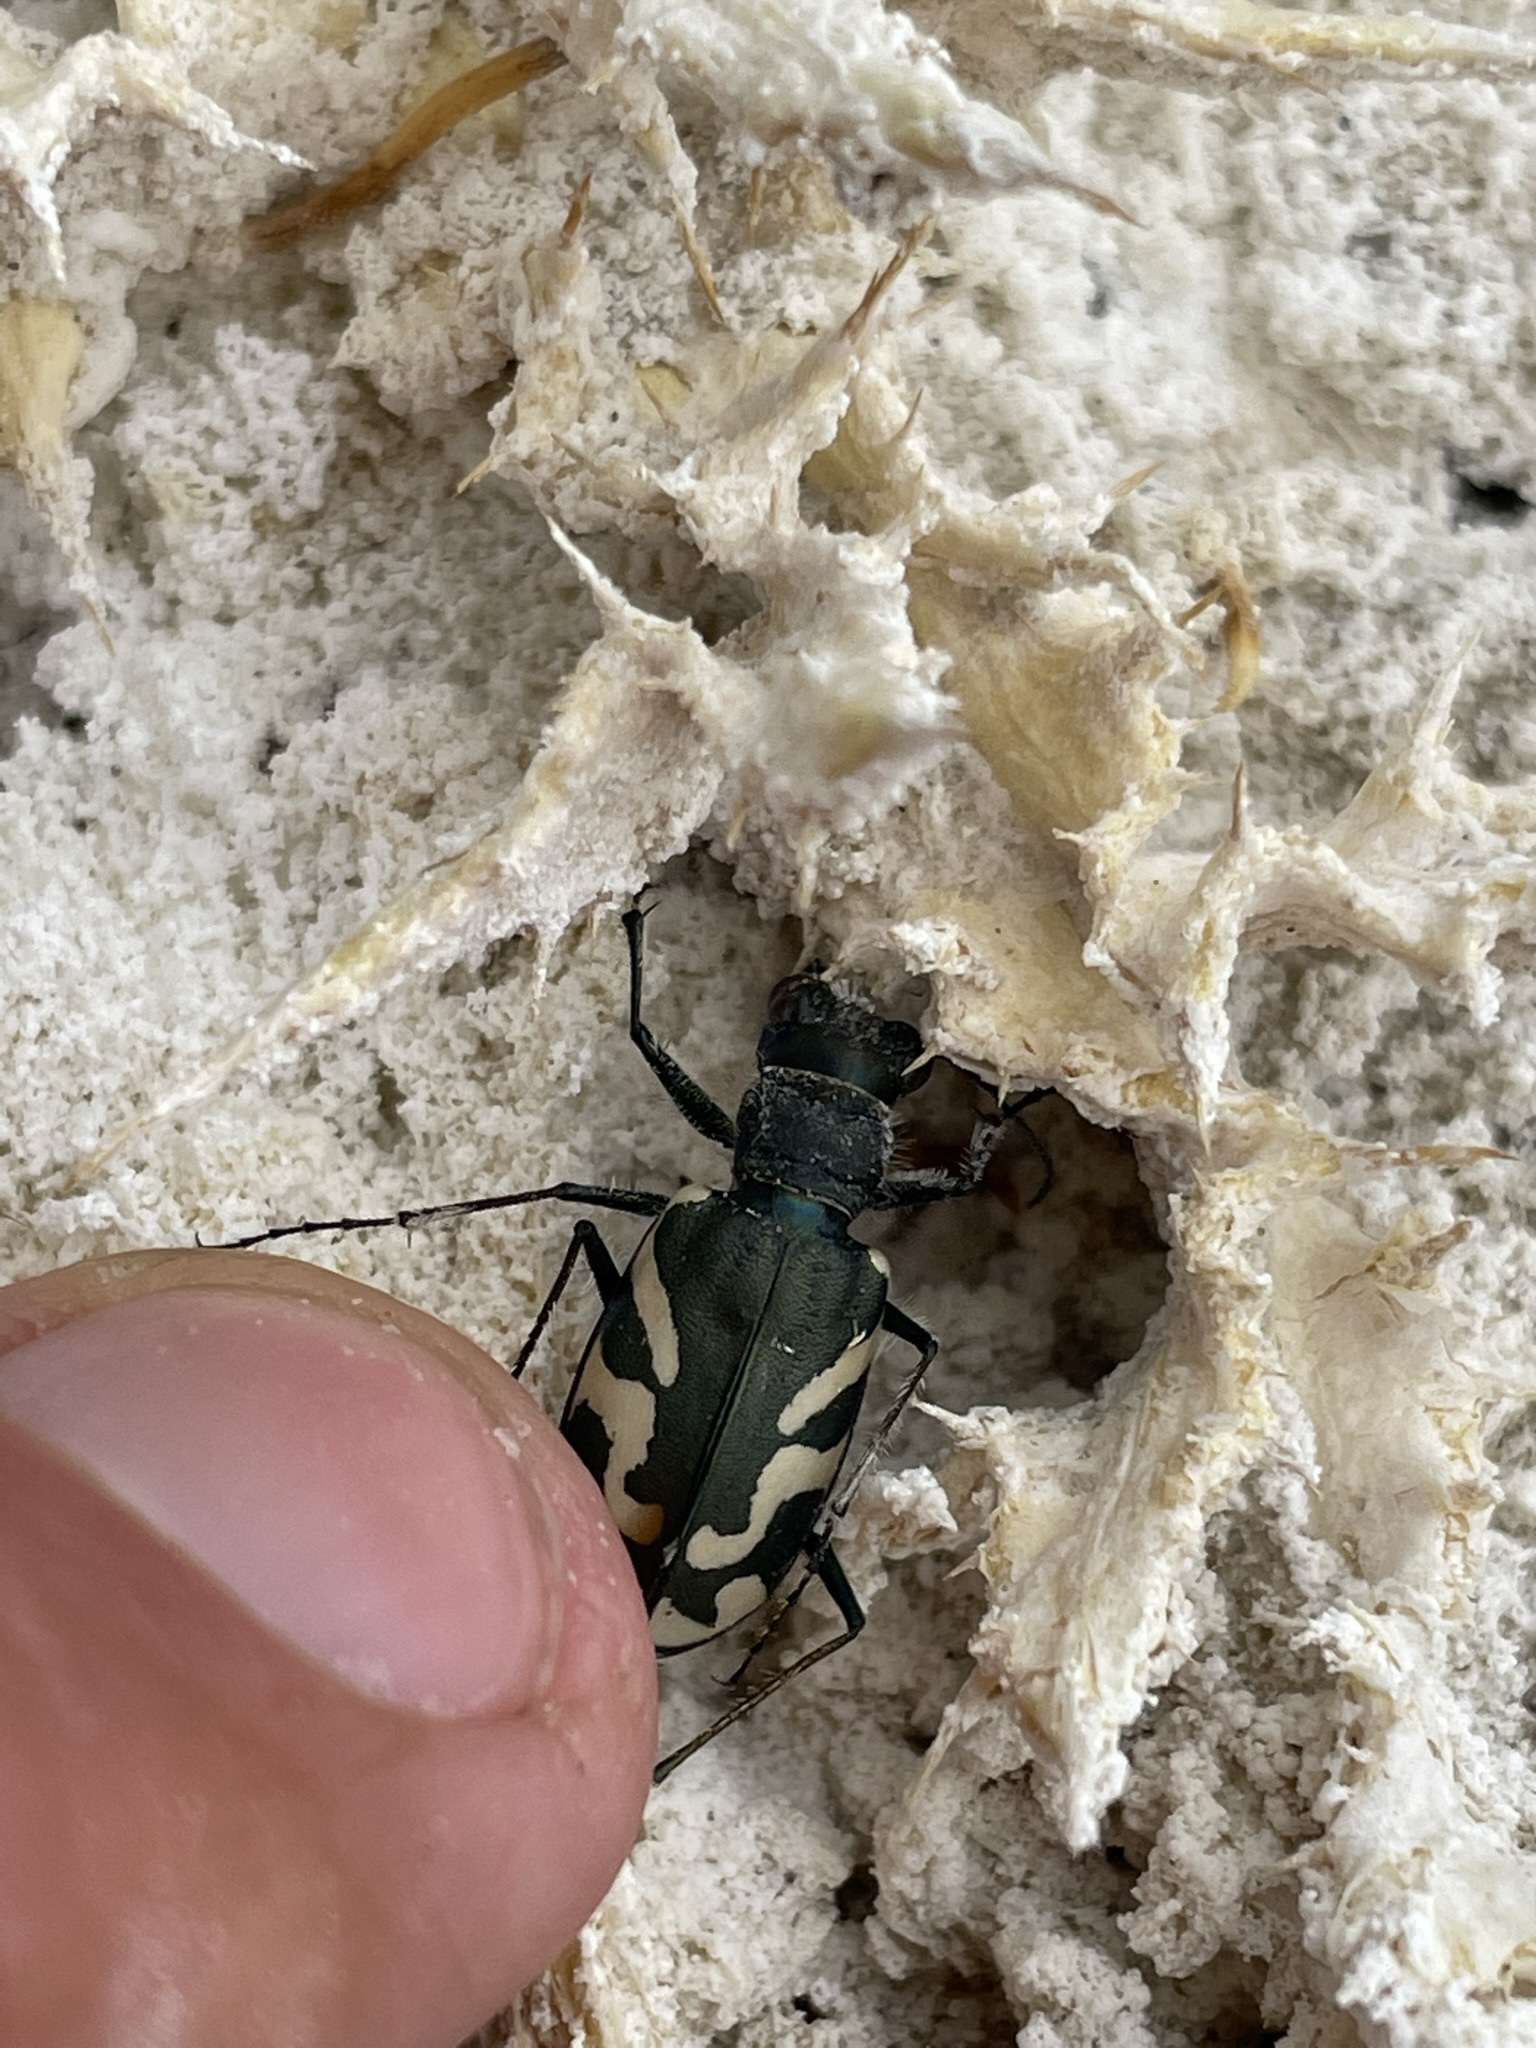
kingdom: Animalia
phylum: Arthropoda
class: Insecta
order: Coleoptera
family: Carabidae
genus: Cicindela
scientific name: Cicindela tranquebarica
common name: Oblique-lined tiger beetle
